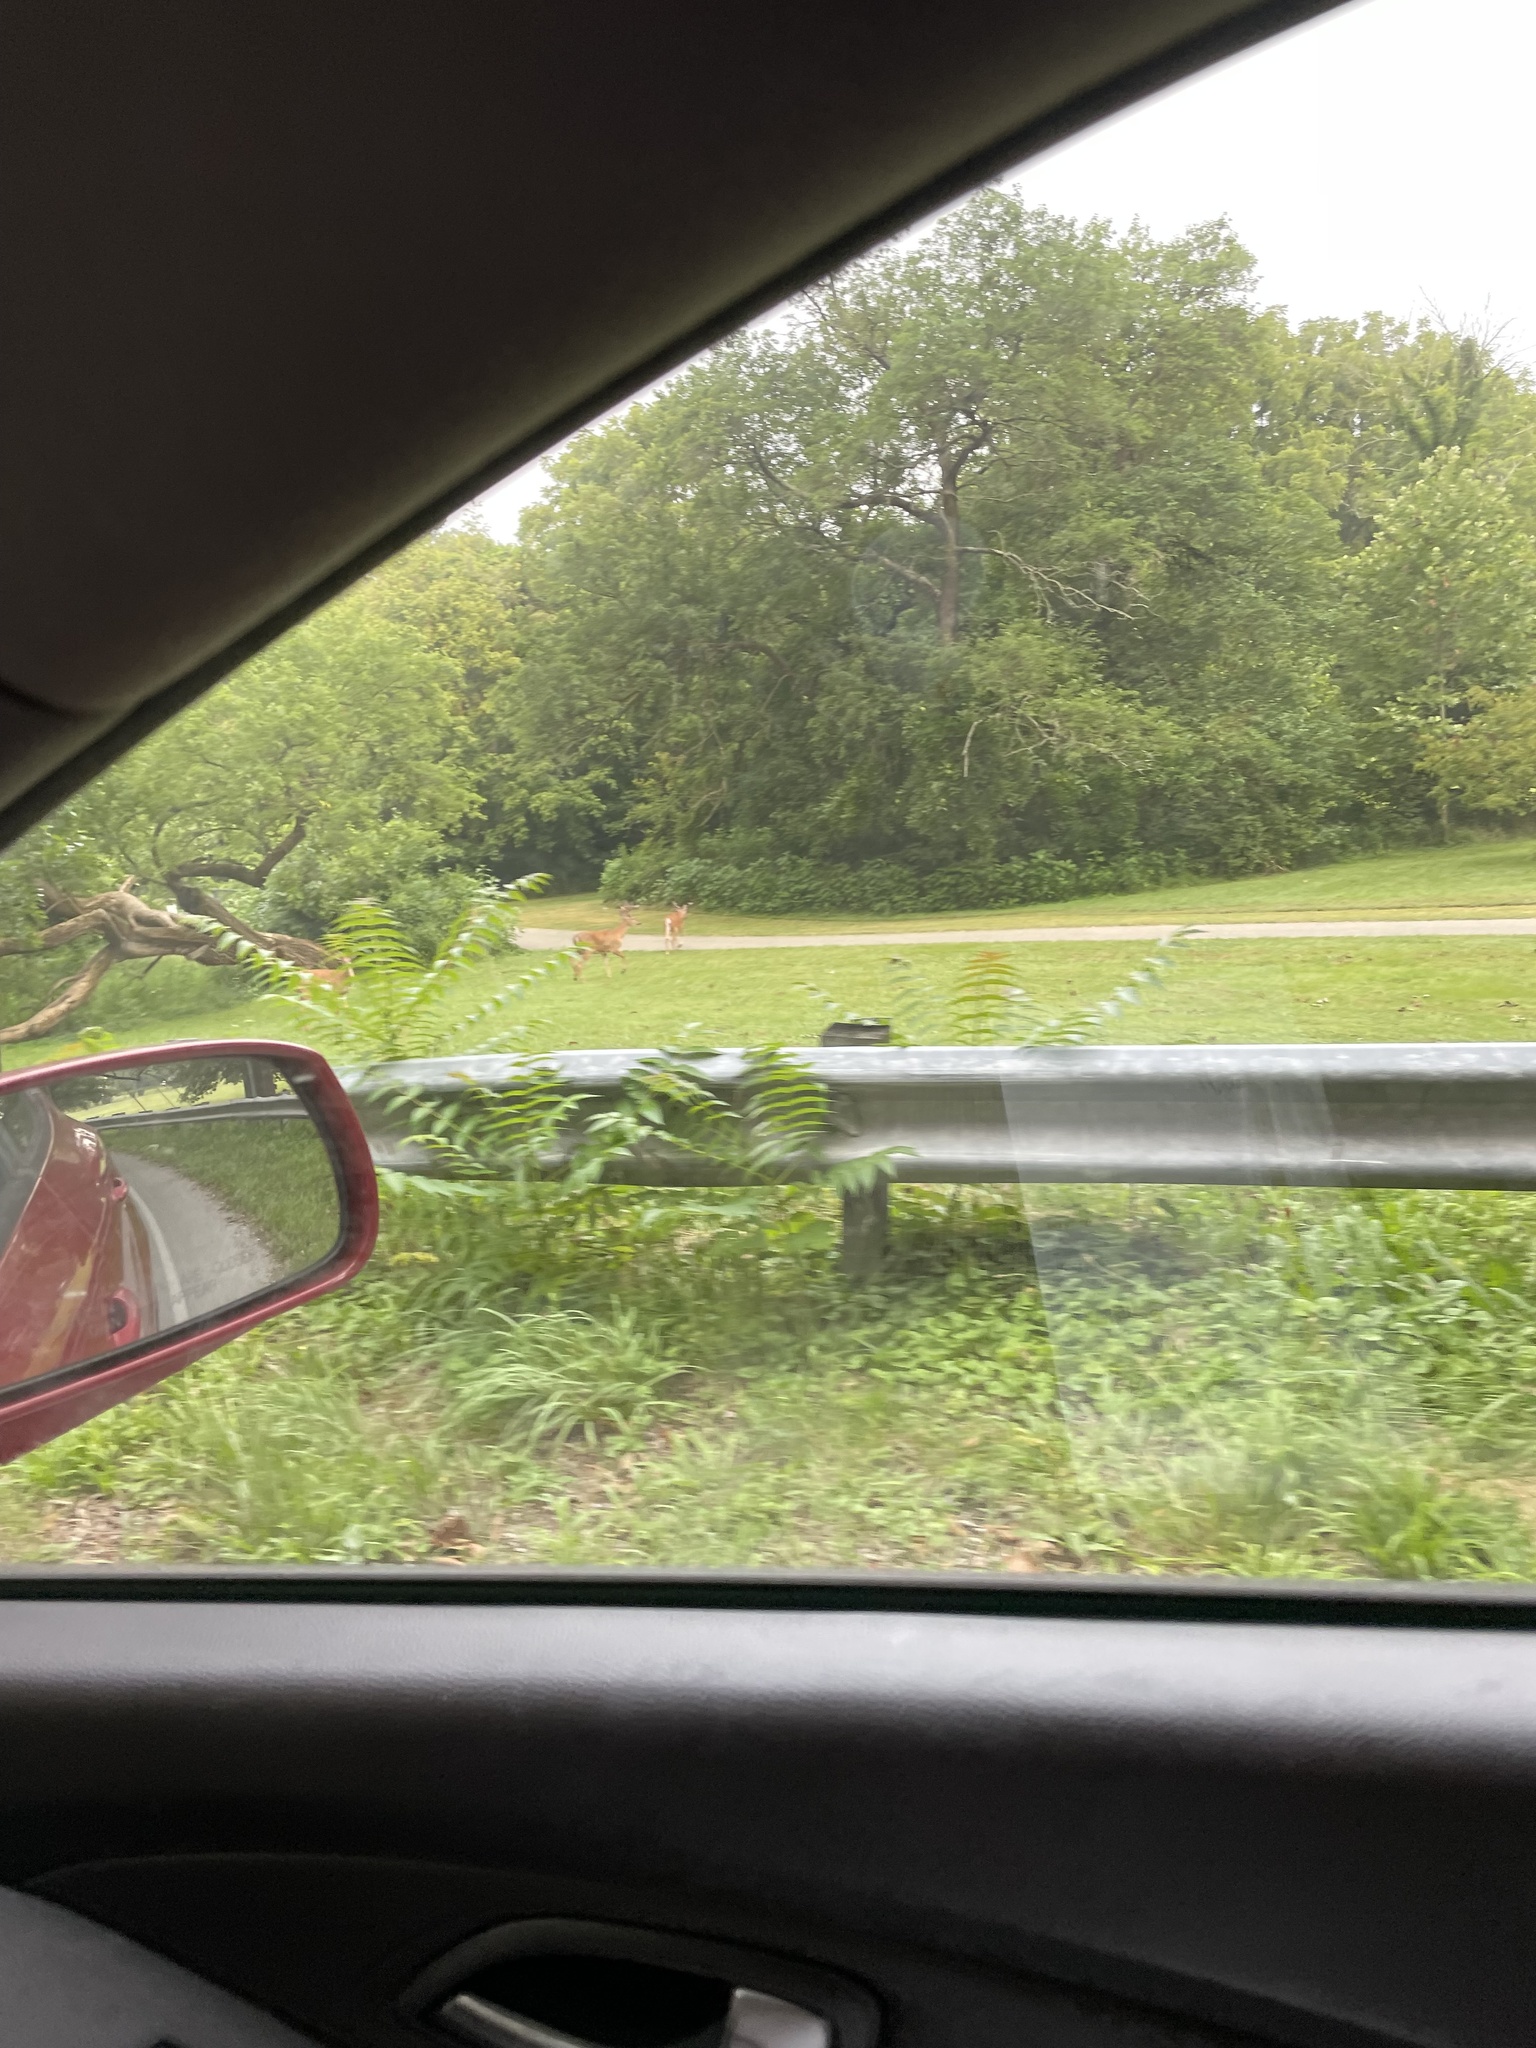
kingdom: Animalia
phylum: Chordata
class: Mammalia
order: Artiodactyla
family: Cervidae
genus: Odocoileus
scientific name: Odocoileus virginianus
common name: White-tailed deer
